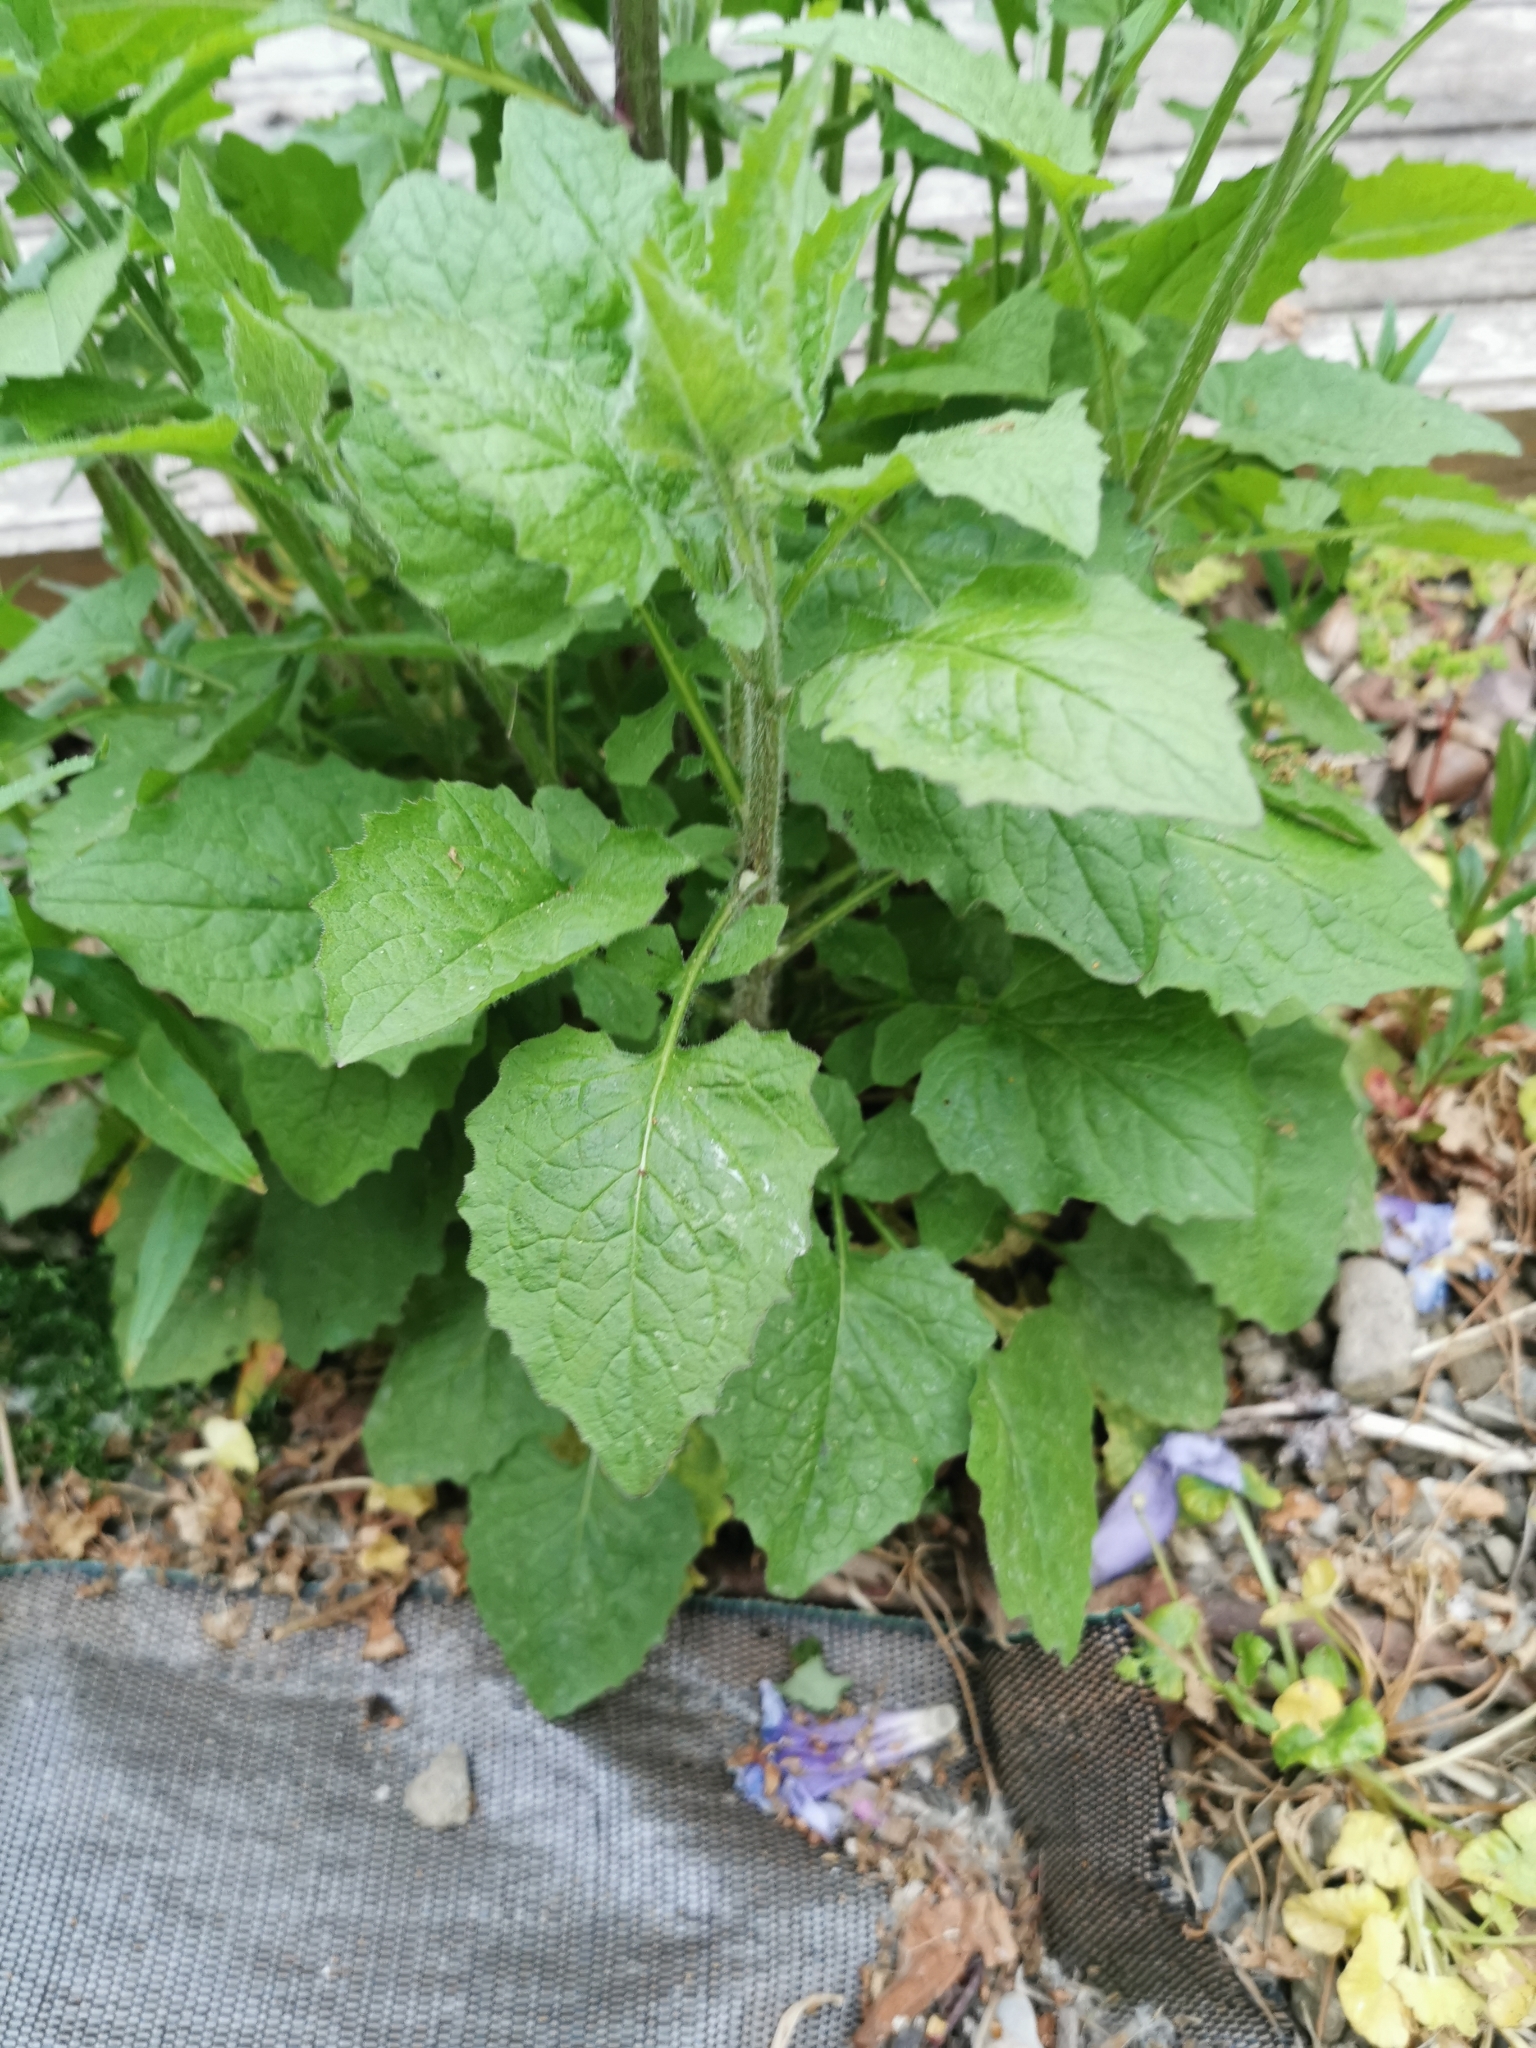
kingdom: Plantae
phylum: Tracheophyta
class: Magnoliopsida
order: Asterales
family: Asteraceae
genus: Lapsana
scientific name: Lapsana communis
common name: Nipplewort
